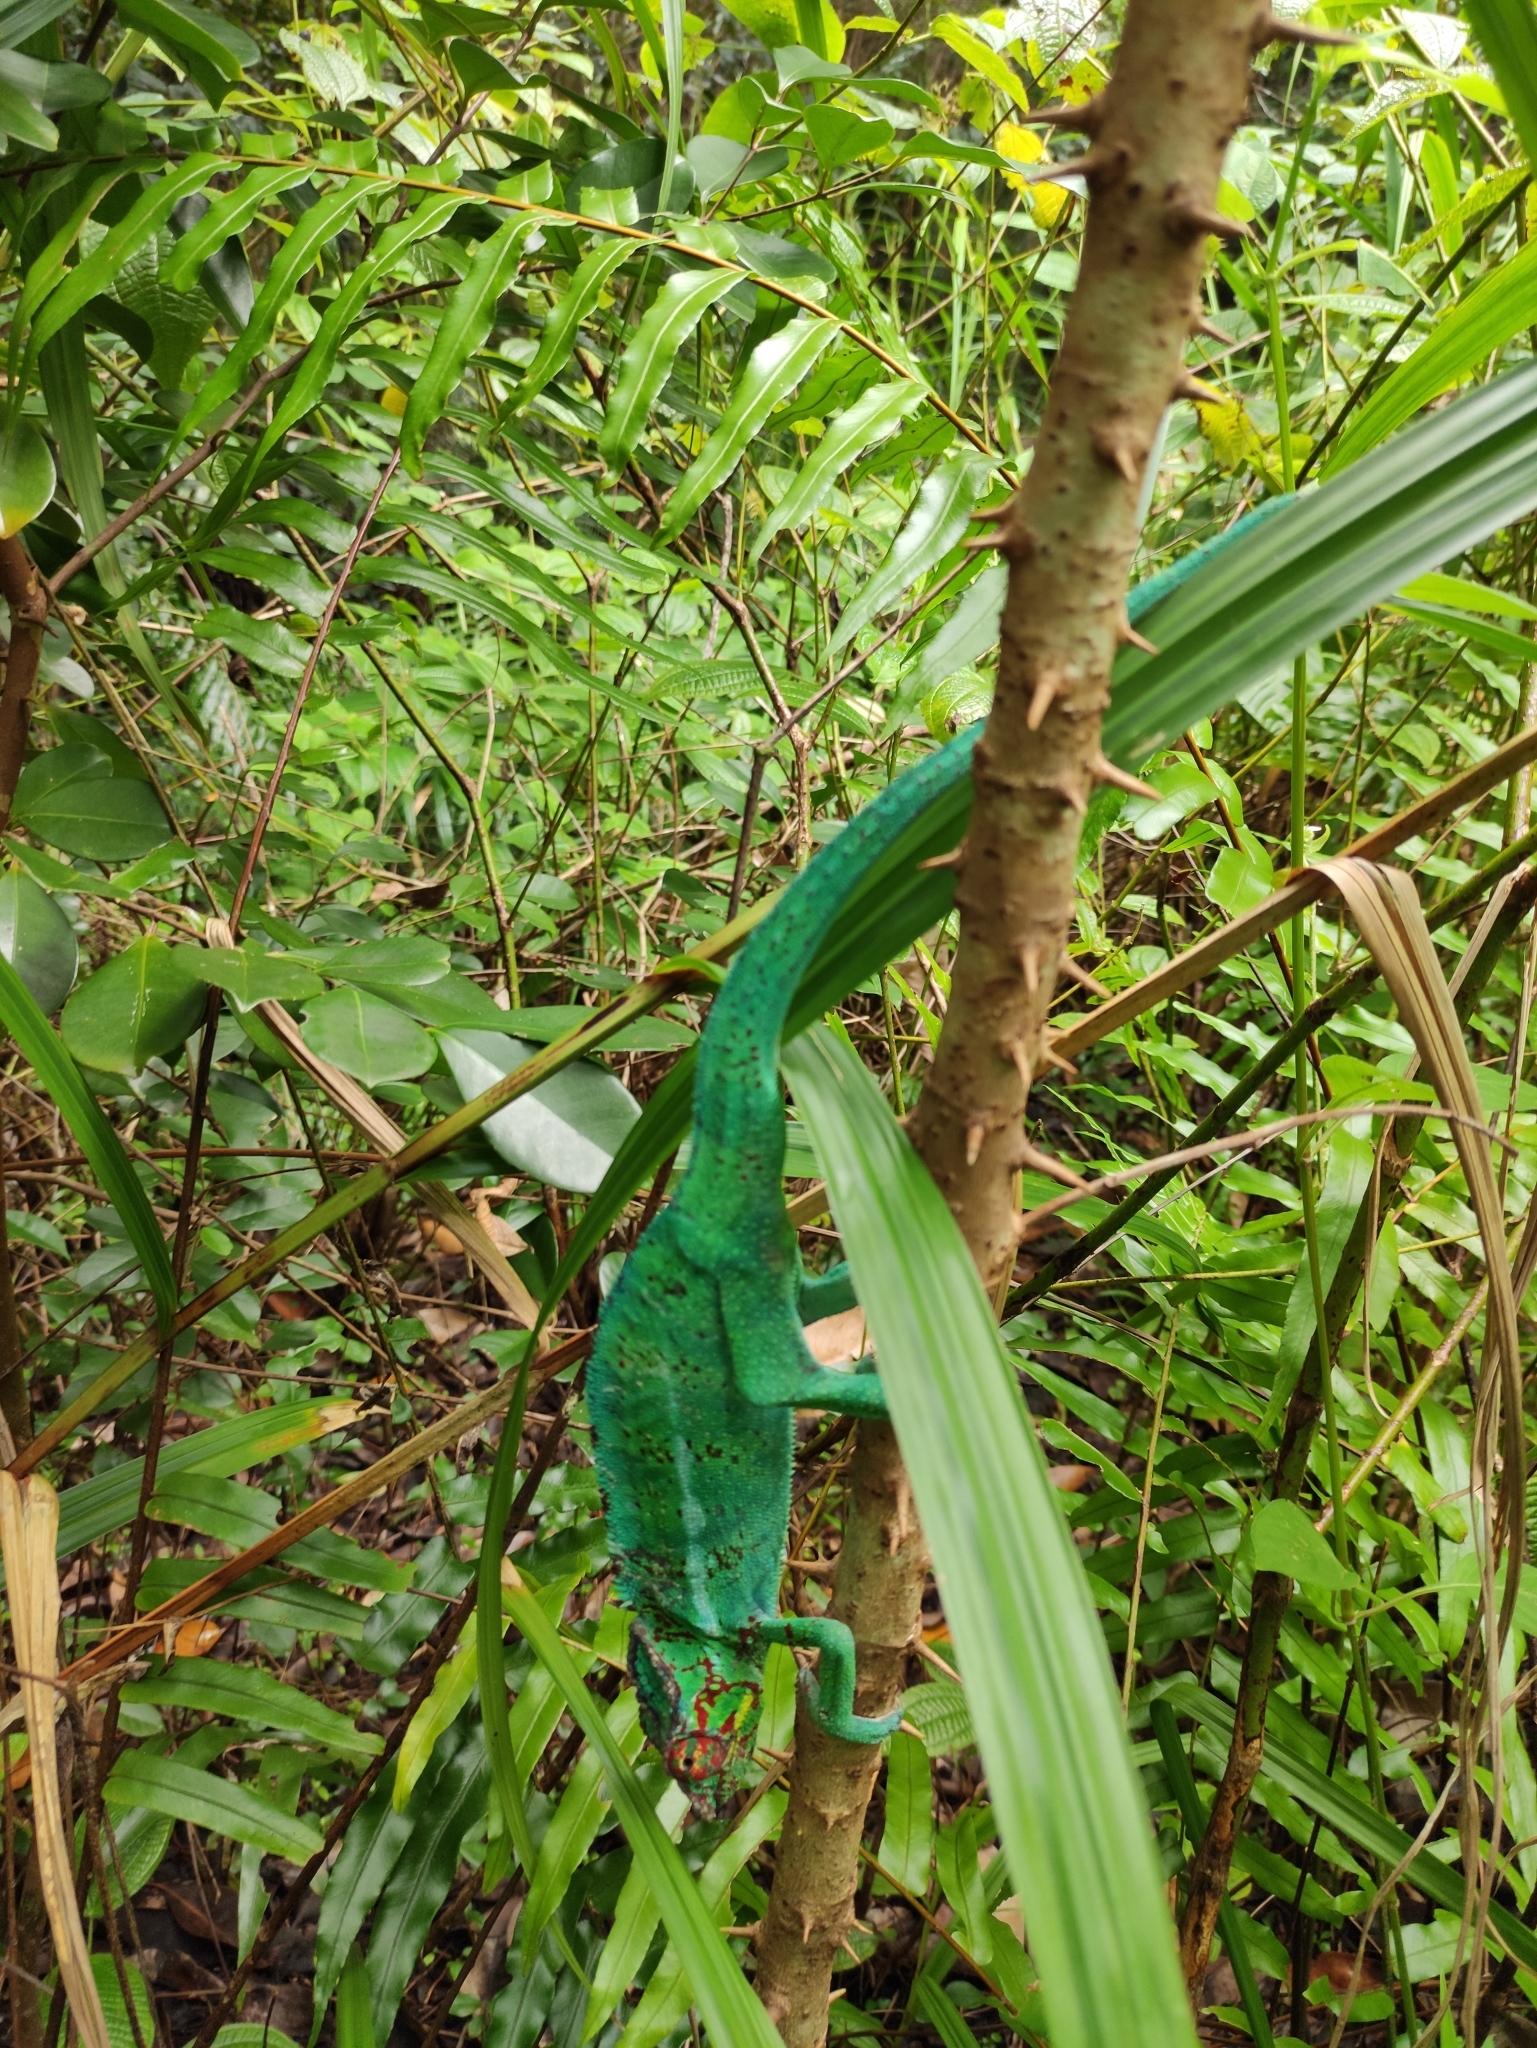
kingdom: Animalia
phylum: Chordata
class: Squamata
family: Chamaeleonidae
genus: Furcifer
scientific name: Furcifer pardalis
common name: Panther chameleon
